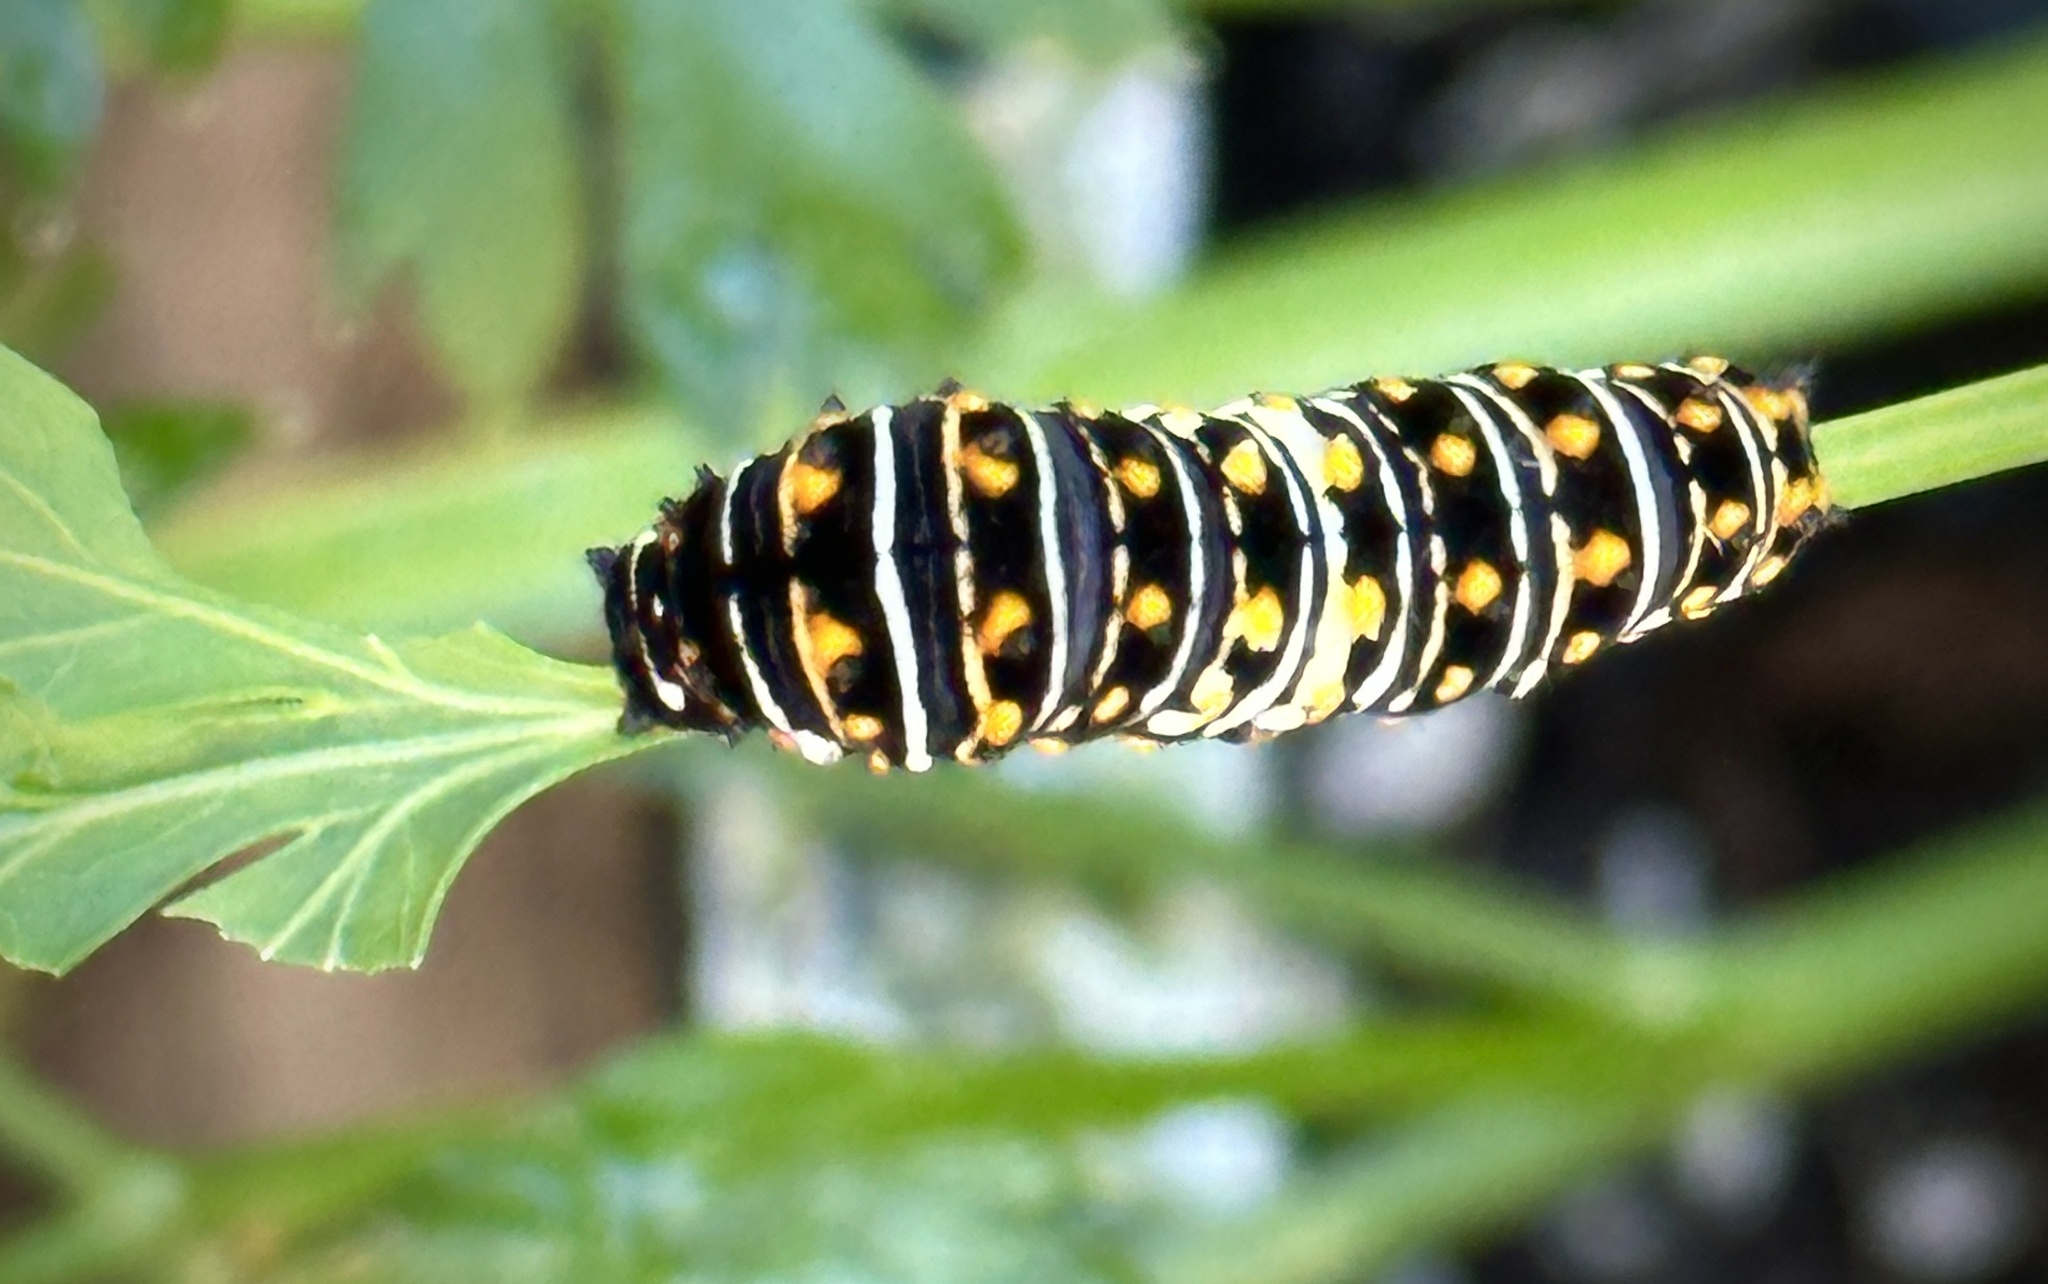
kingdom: Animalia
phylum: Arthropoda
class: Insecta
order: Lepidoptera
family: Papilionidae
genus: Papilio
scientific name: Papilio polyxenes
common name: Black swallowtail
